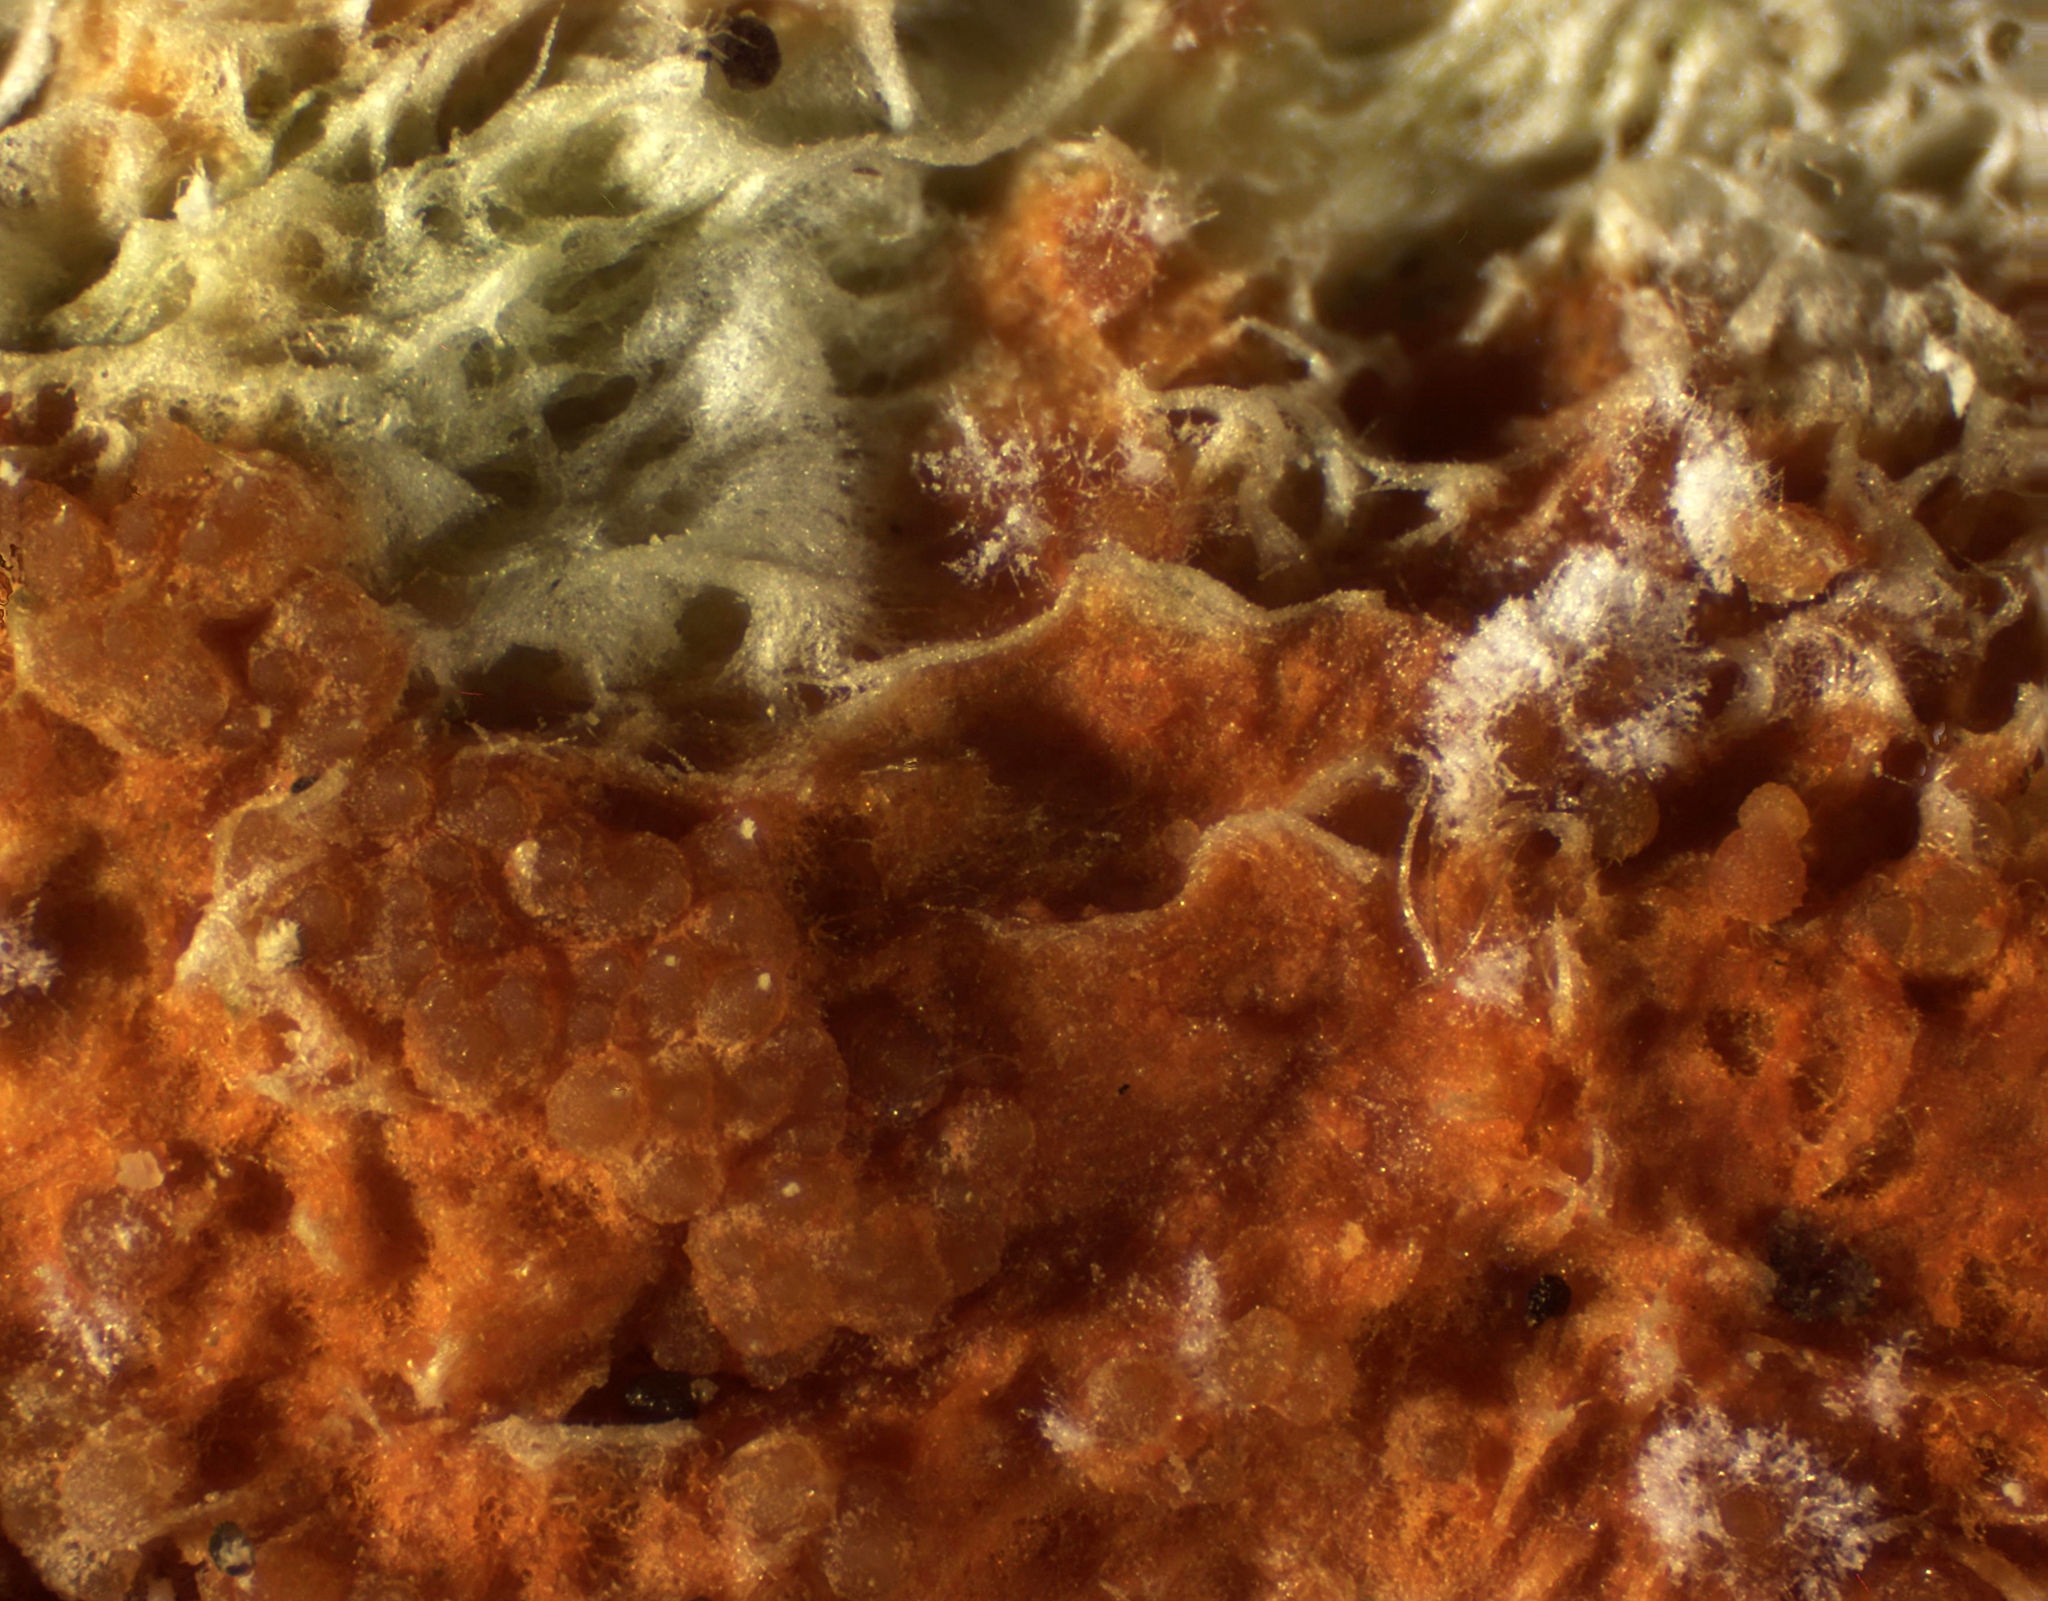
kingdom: Fungi
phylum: Ascomycota
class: Sordariomycetes
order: Hypocreales
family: Hypocreaceae
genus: Hypomyces
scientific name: Hypomyces aurantius
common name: Orange polypore mould
